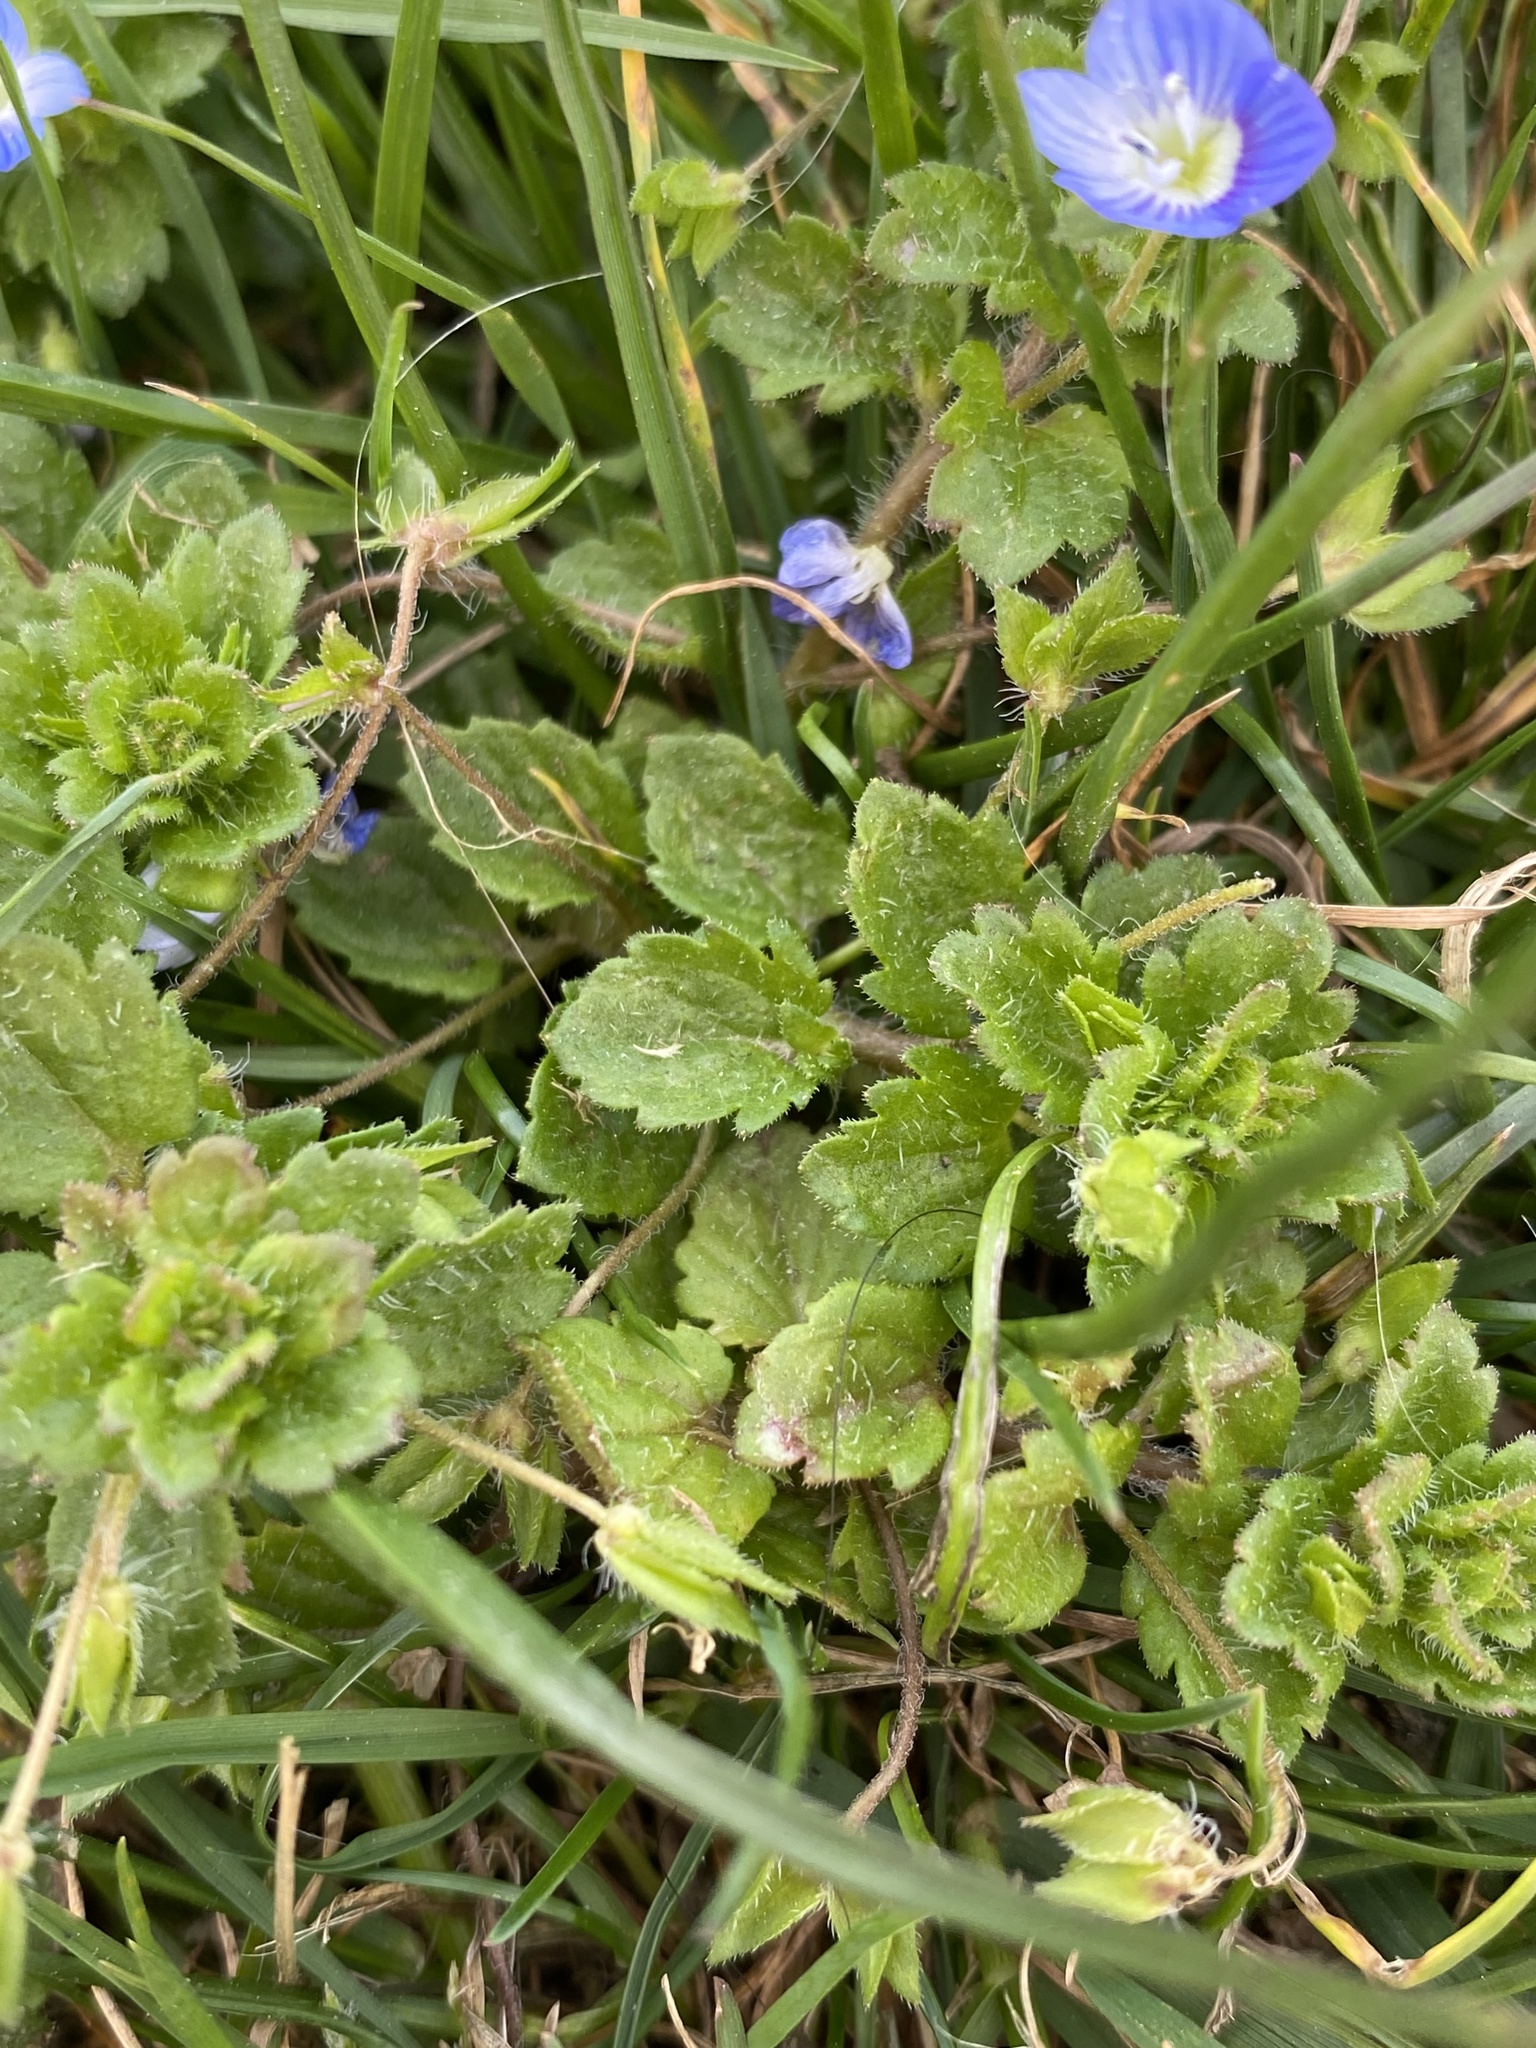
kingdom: Plantae
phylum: Tracheophyta
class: Magnoliopsida
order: Lamiales
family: Plantaginaceae
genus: Veronica
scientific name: Veronica persica
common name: Common field-speedwell
